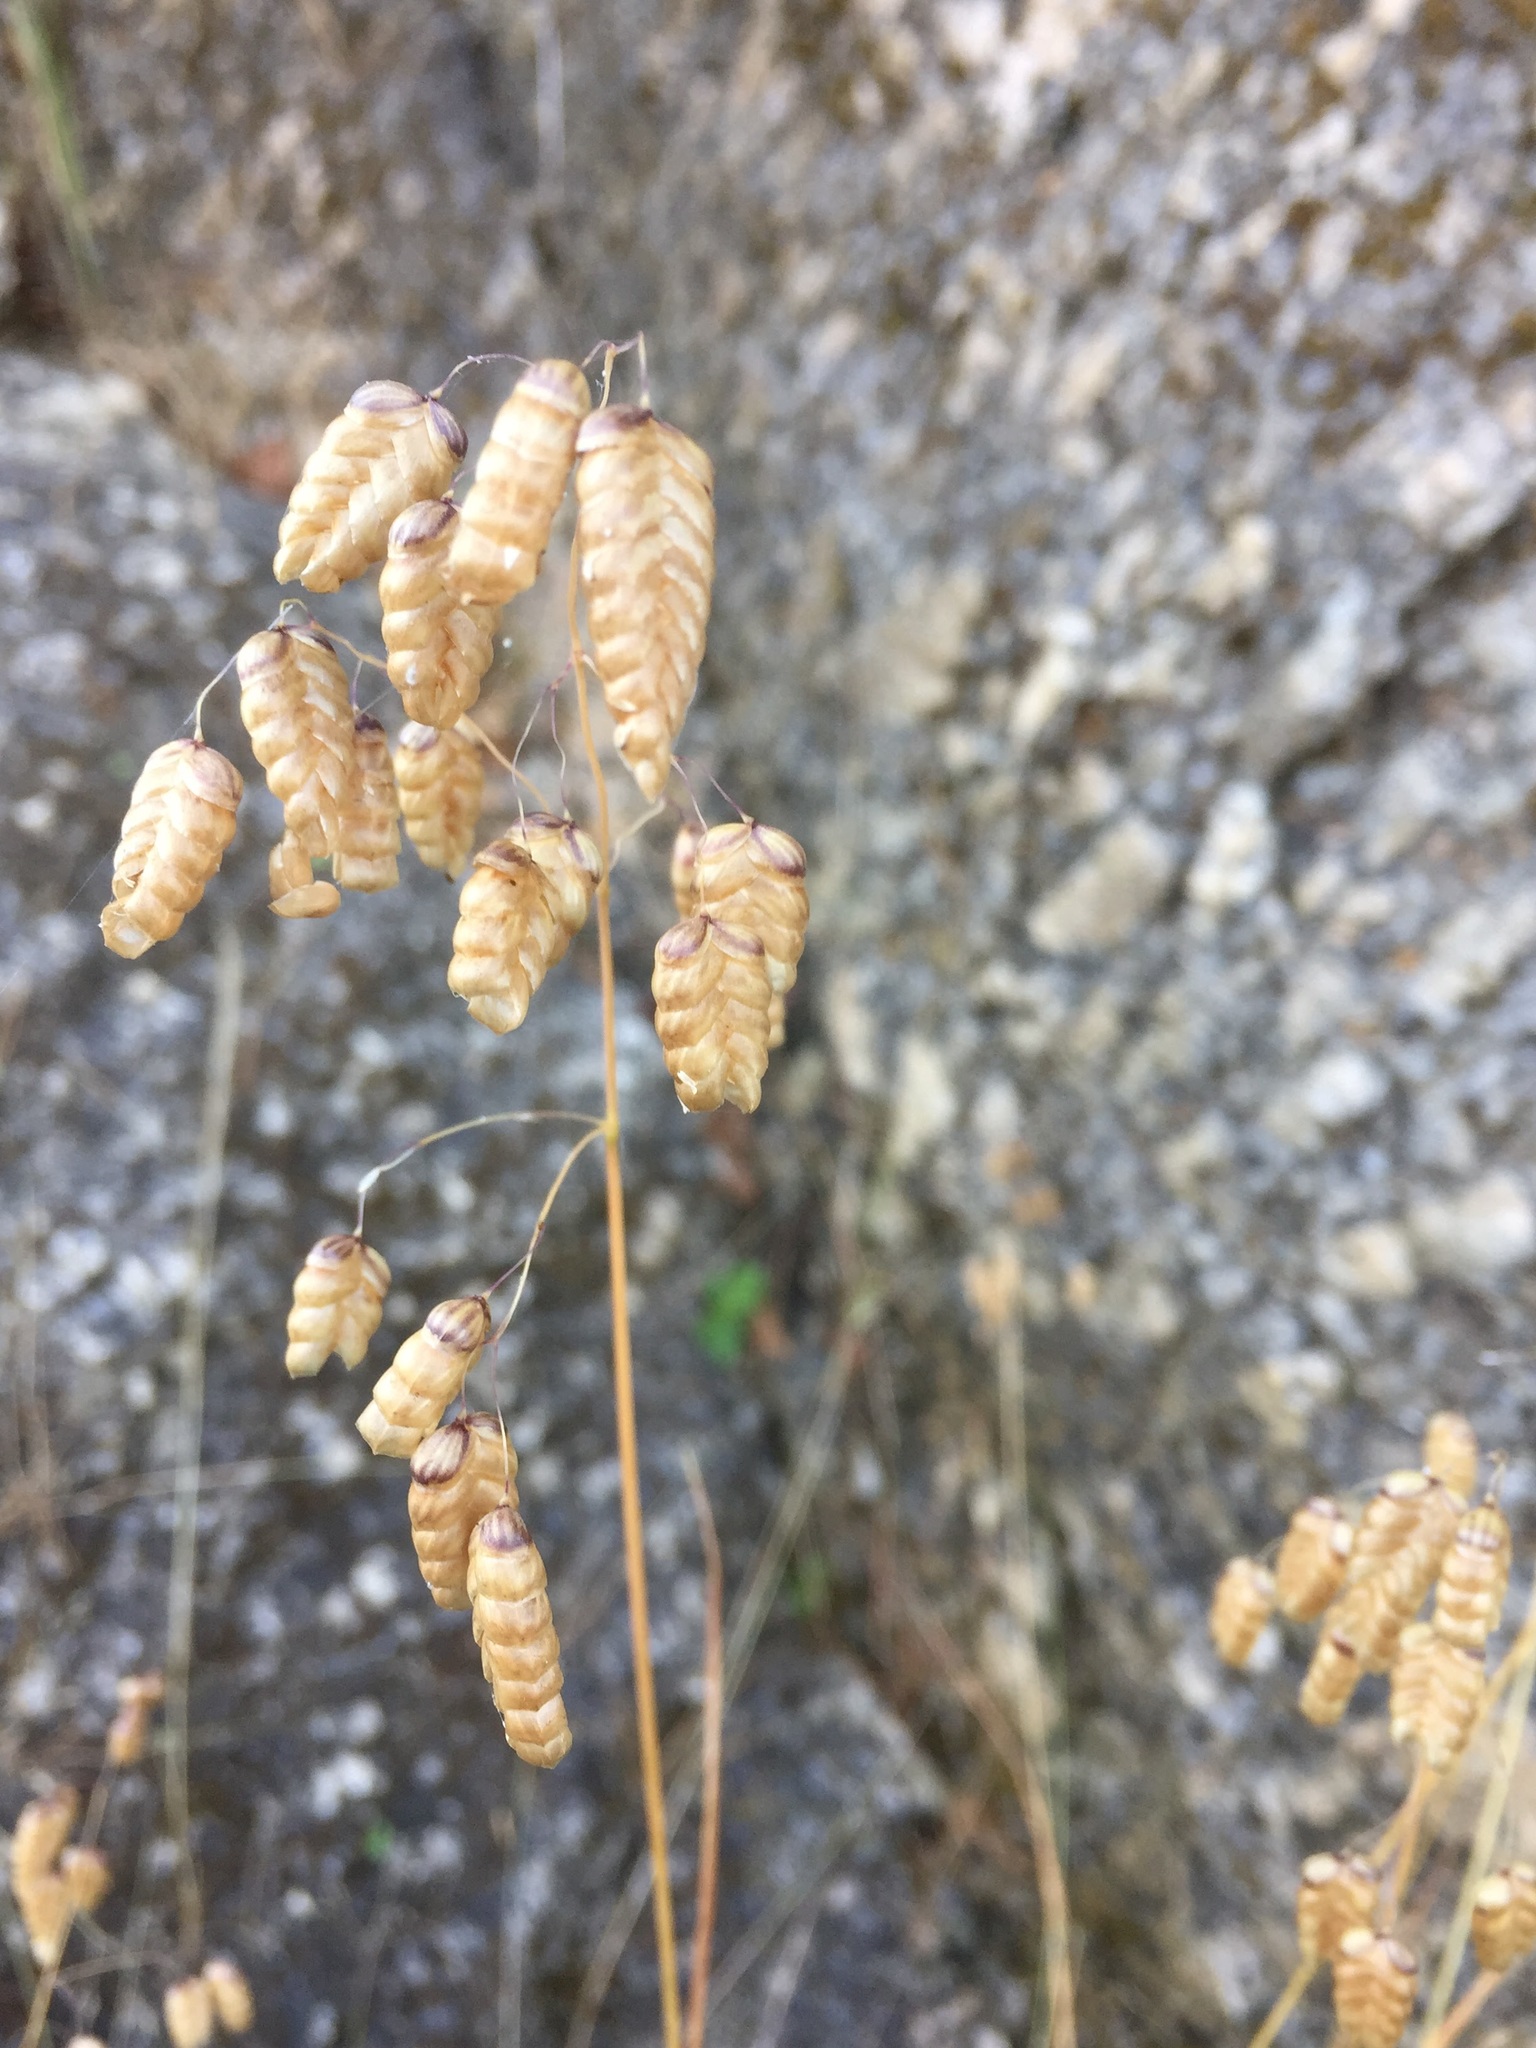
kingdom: Plantae
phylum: Tracheophyta
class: Liliopsida
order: Poales
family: Poaceae
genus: Briza
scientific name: Briza maxima
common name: Big quakinggrass
